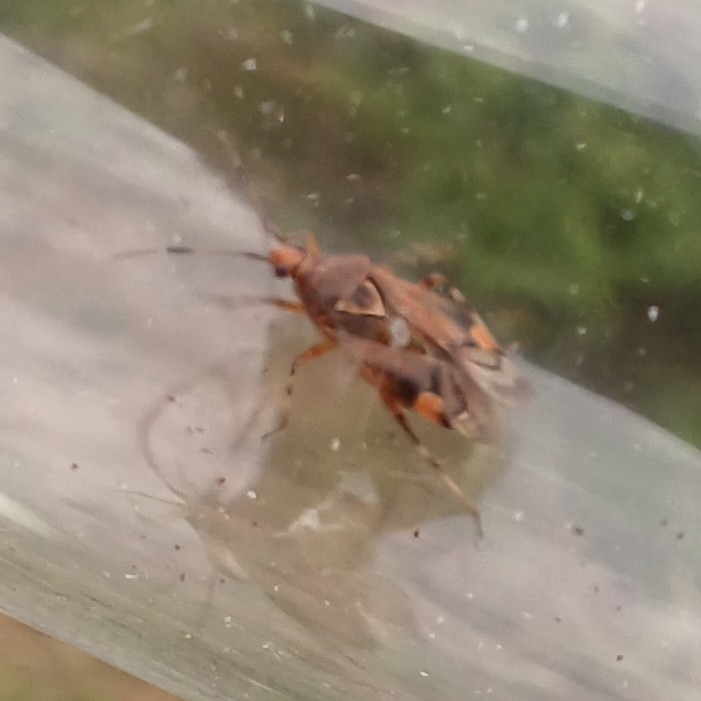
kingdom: Animalia
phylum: Arthropoda
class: Insecta
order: Hemiptera
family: Miridae
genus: Deraeocoris
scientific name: Deraeocoris flavilinea
